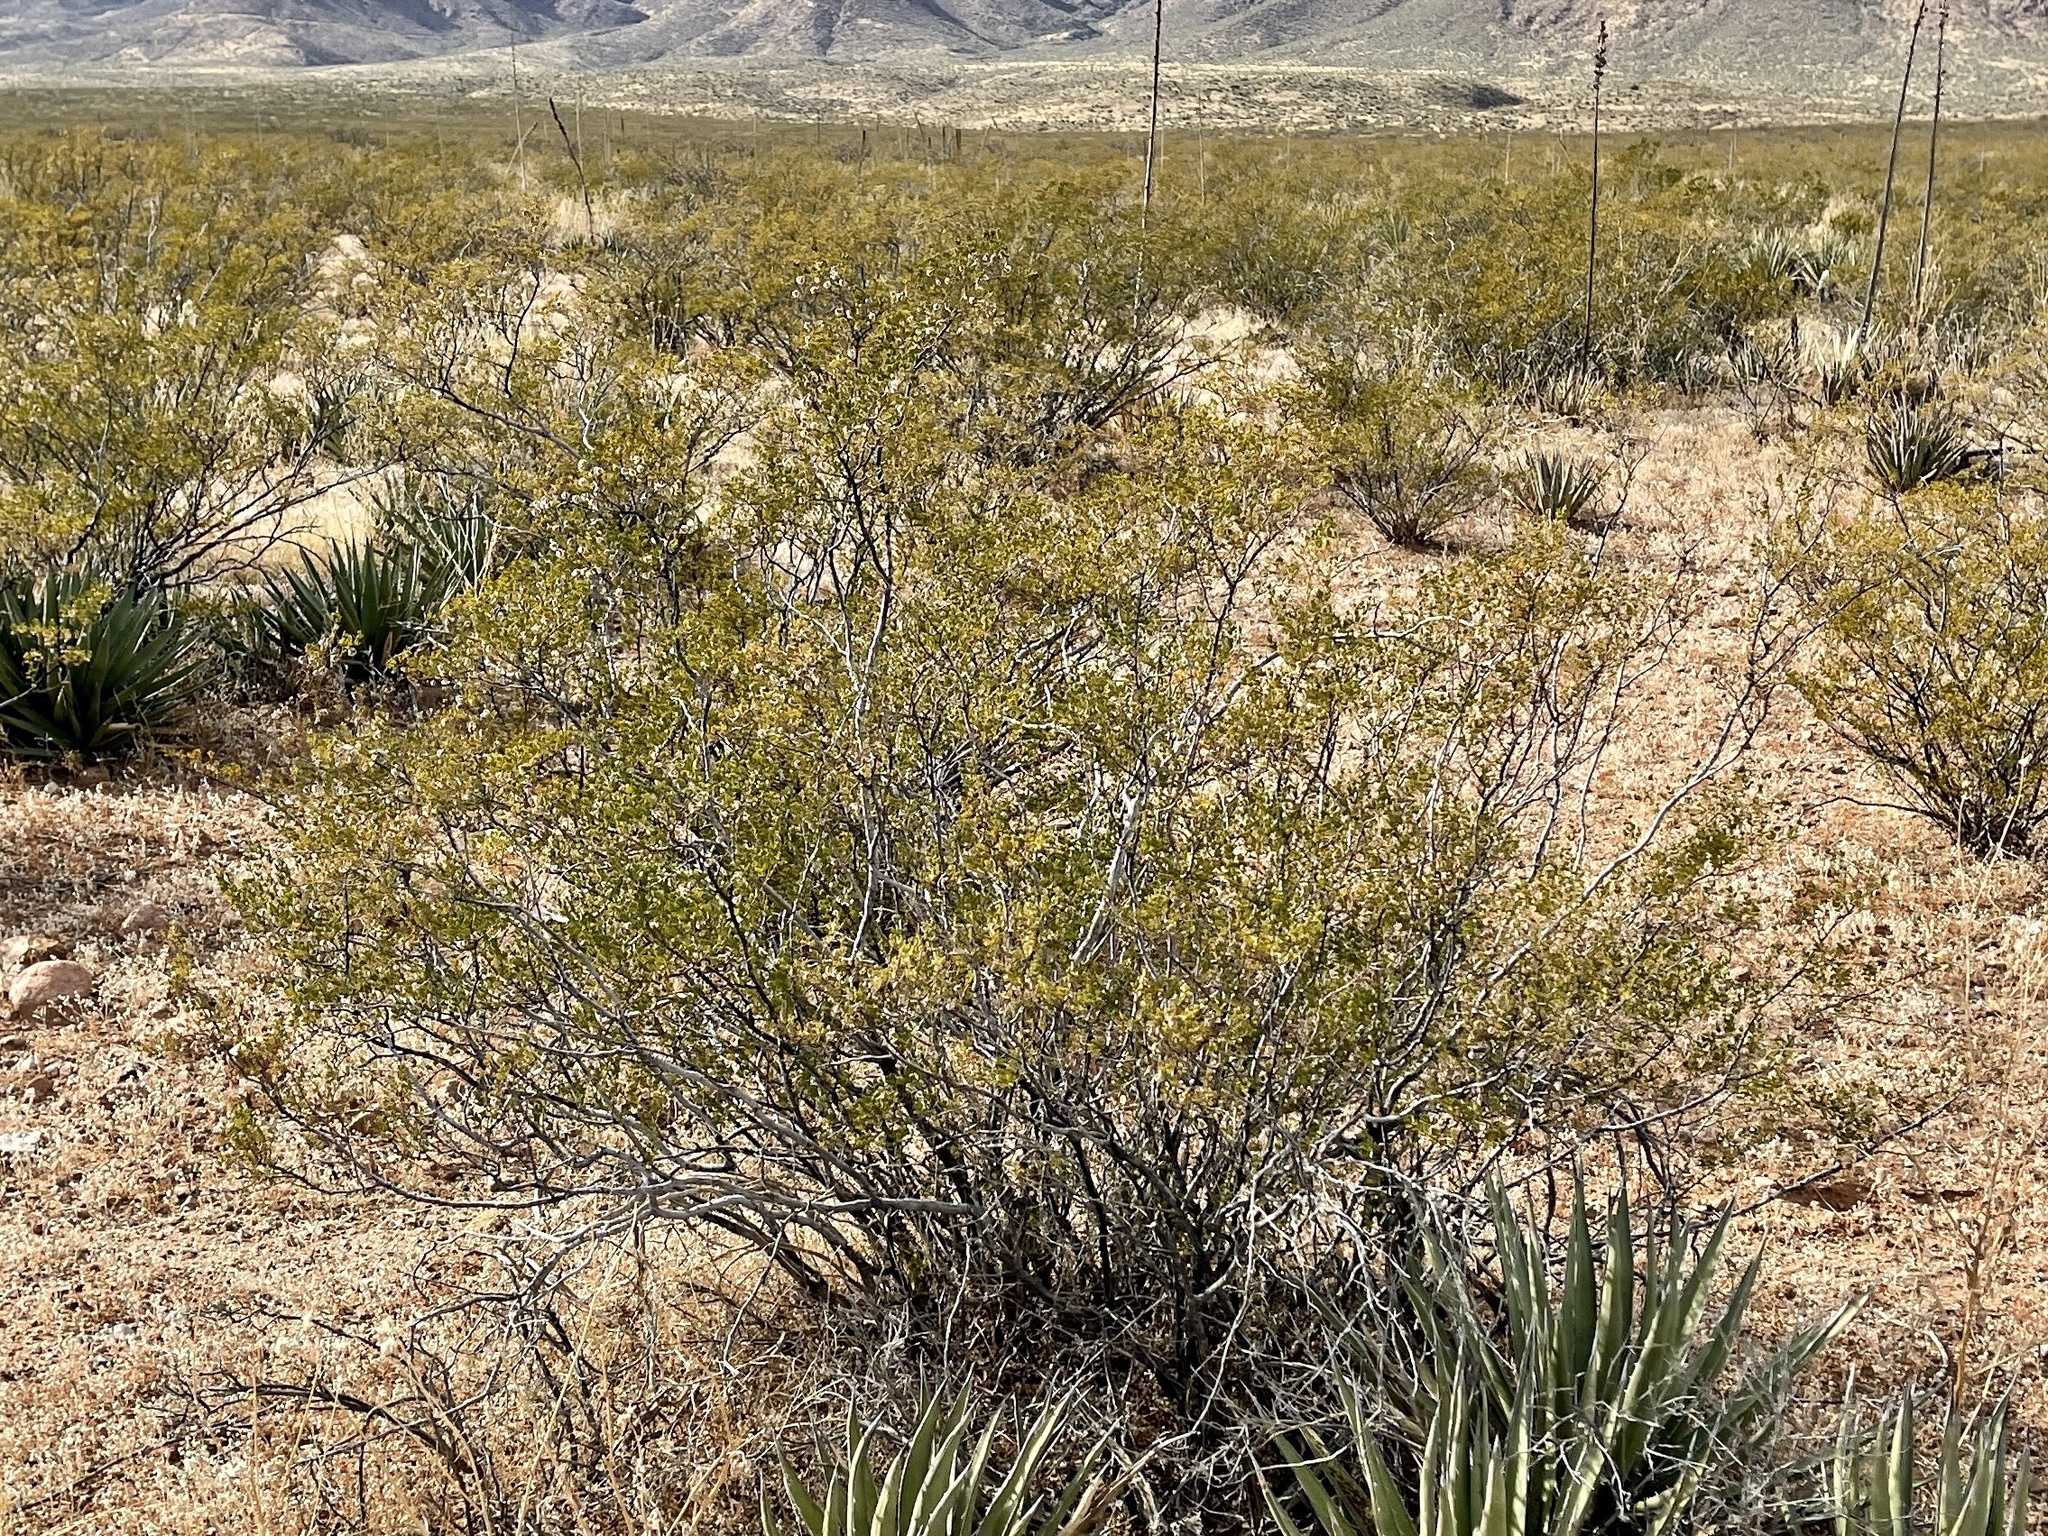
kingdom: Plantae
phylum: Tracheophyta
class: Magnoliopsida
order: Zygophyllales
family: Zygophyllaceae
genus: Larrea
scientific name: Larrea tridentata
